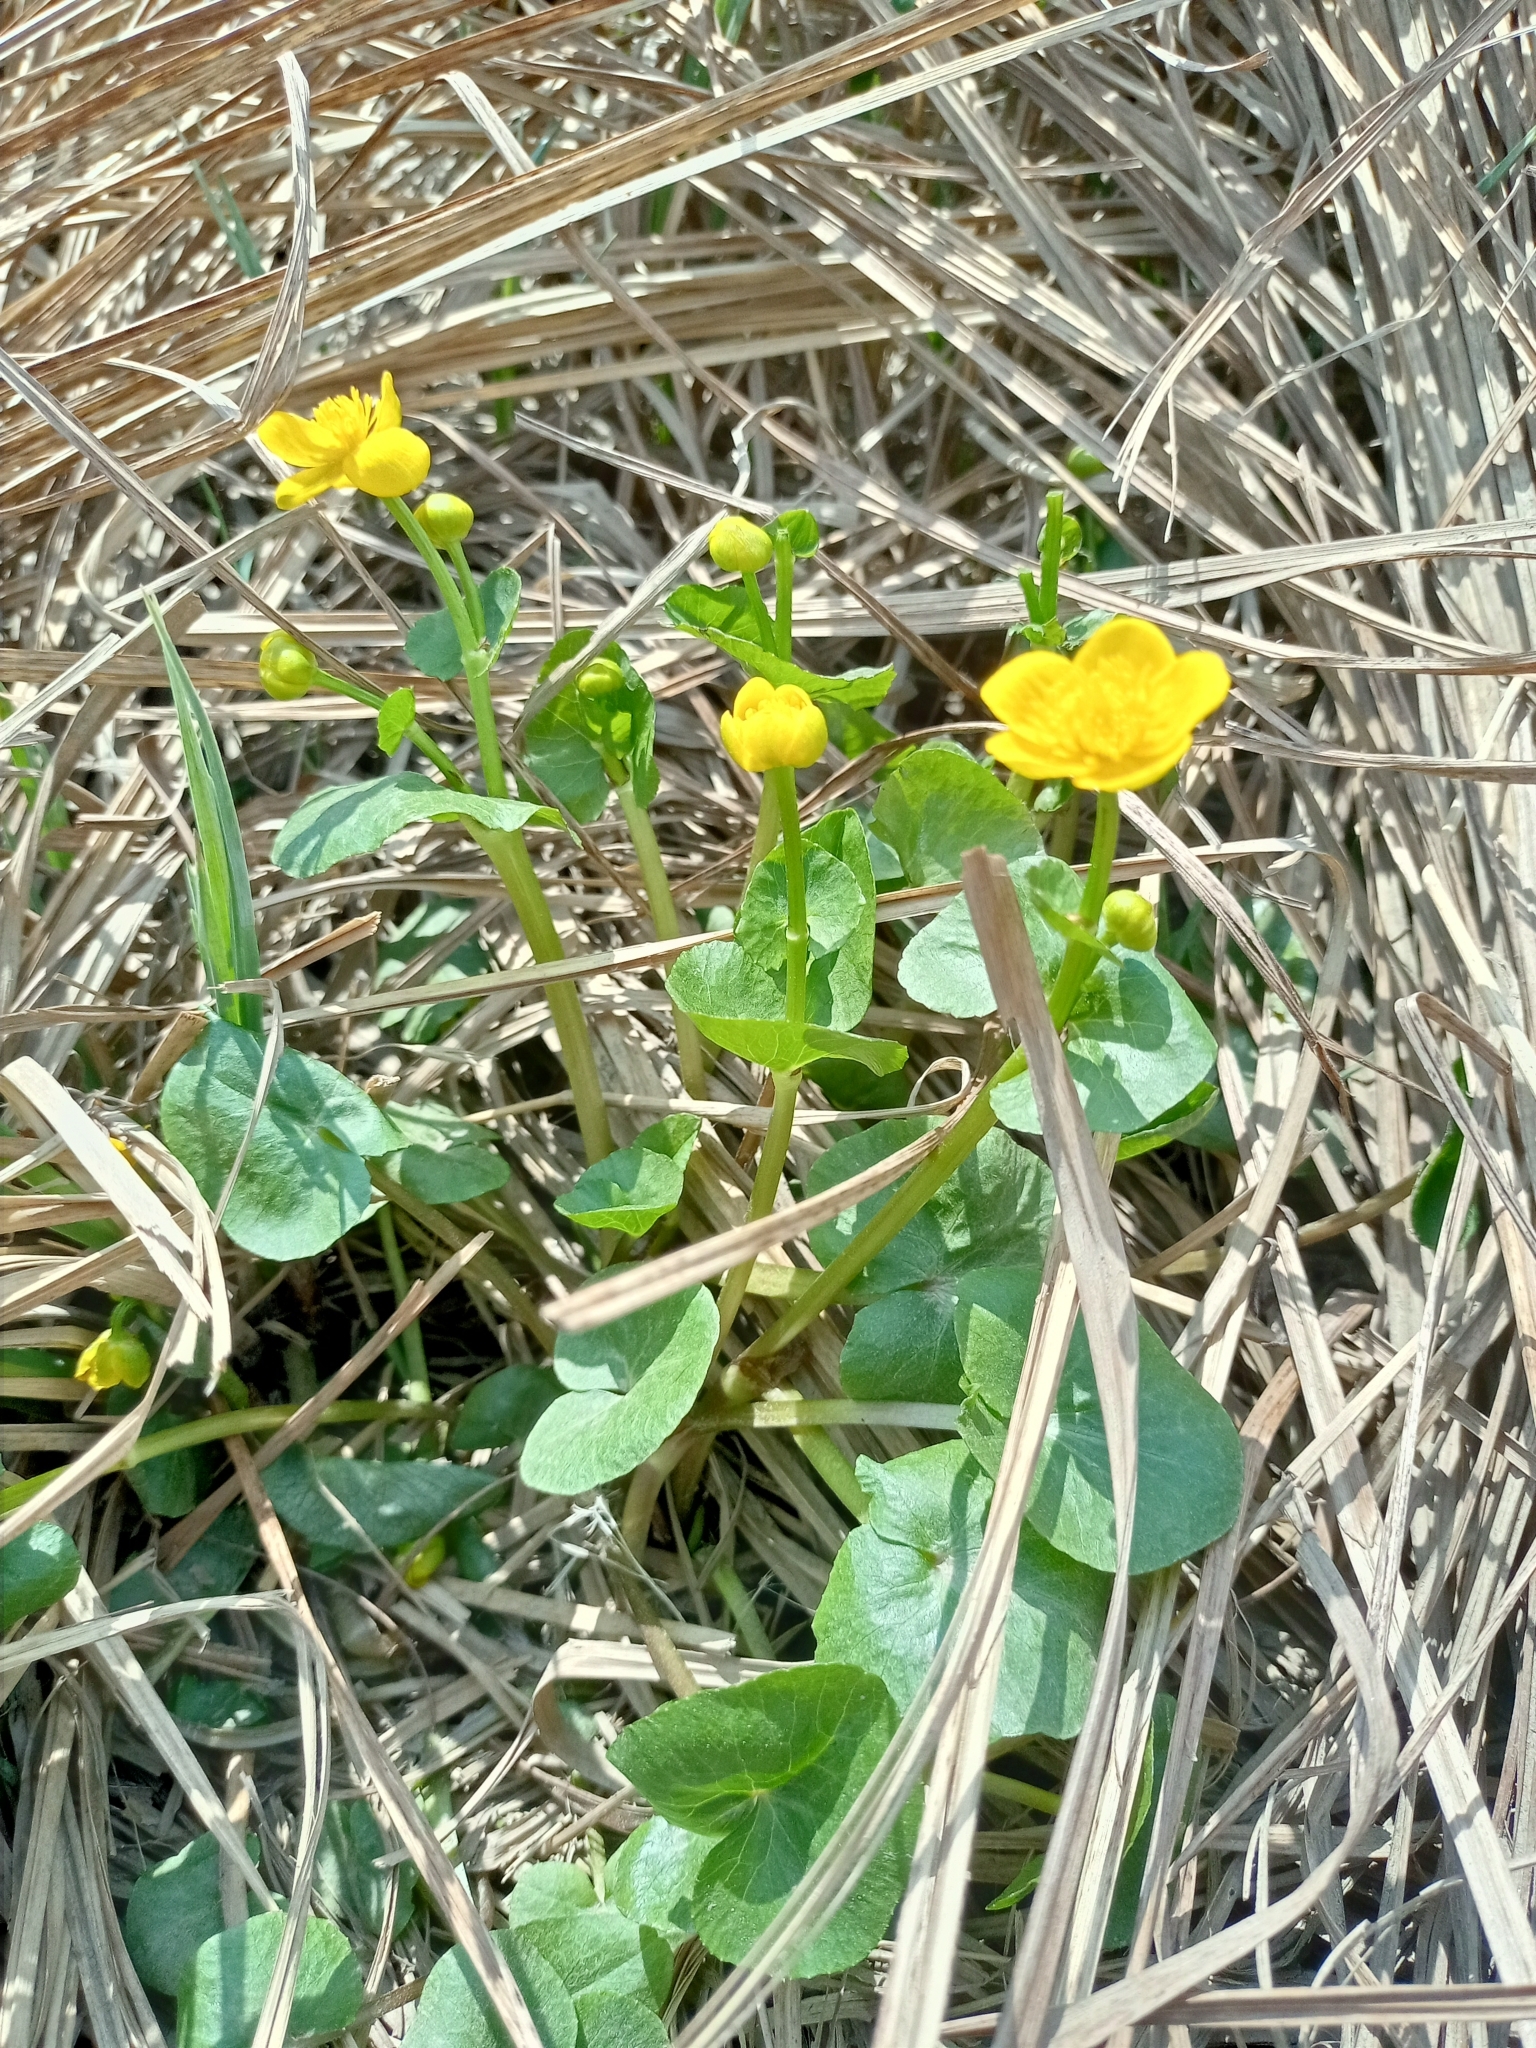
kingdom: Plantae
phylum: Tracheophyta
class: Magnoliopsida
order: Ranunculales
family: Ranunculaceae
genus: Caltha
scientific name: Caltha palustris
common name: Marsh marigold
